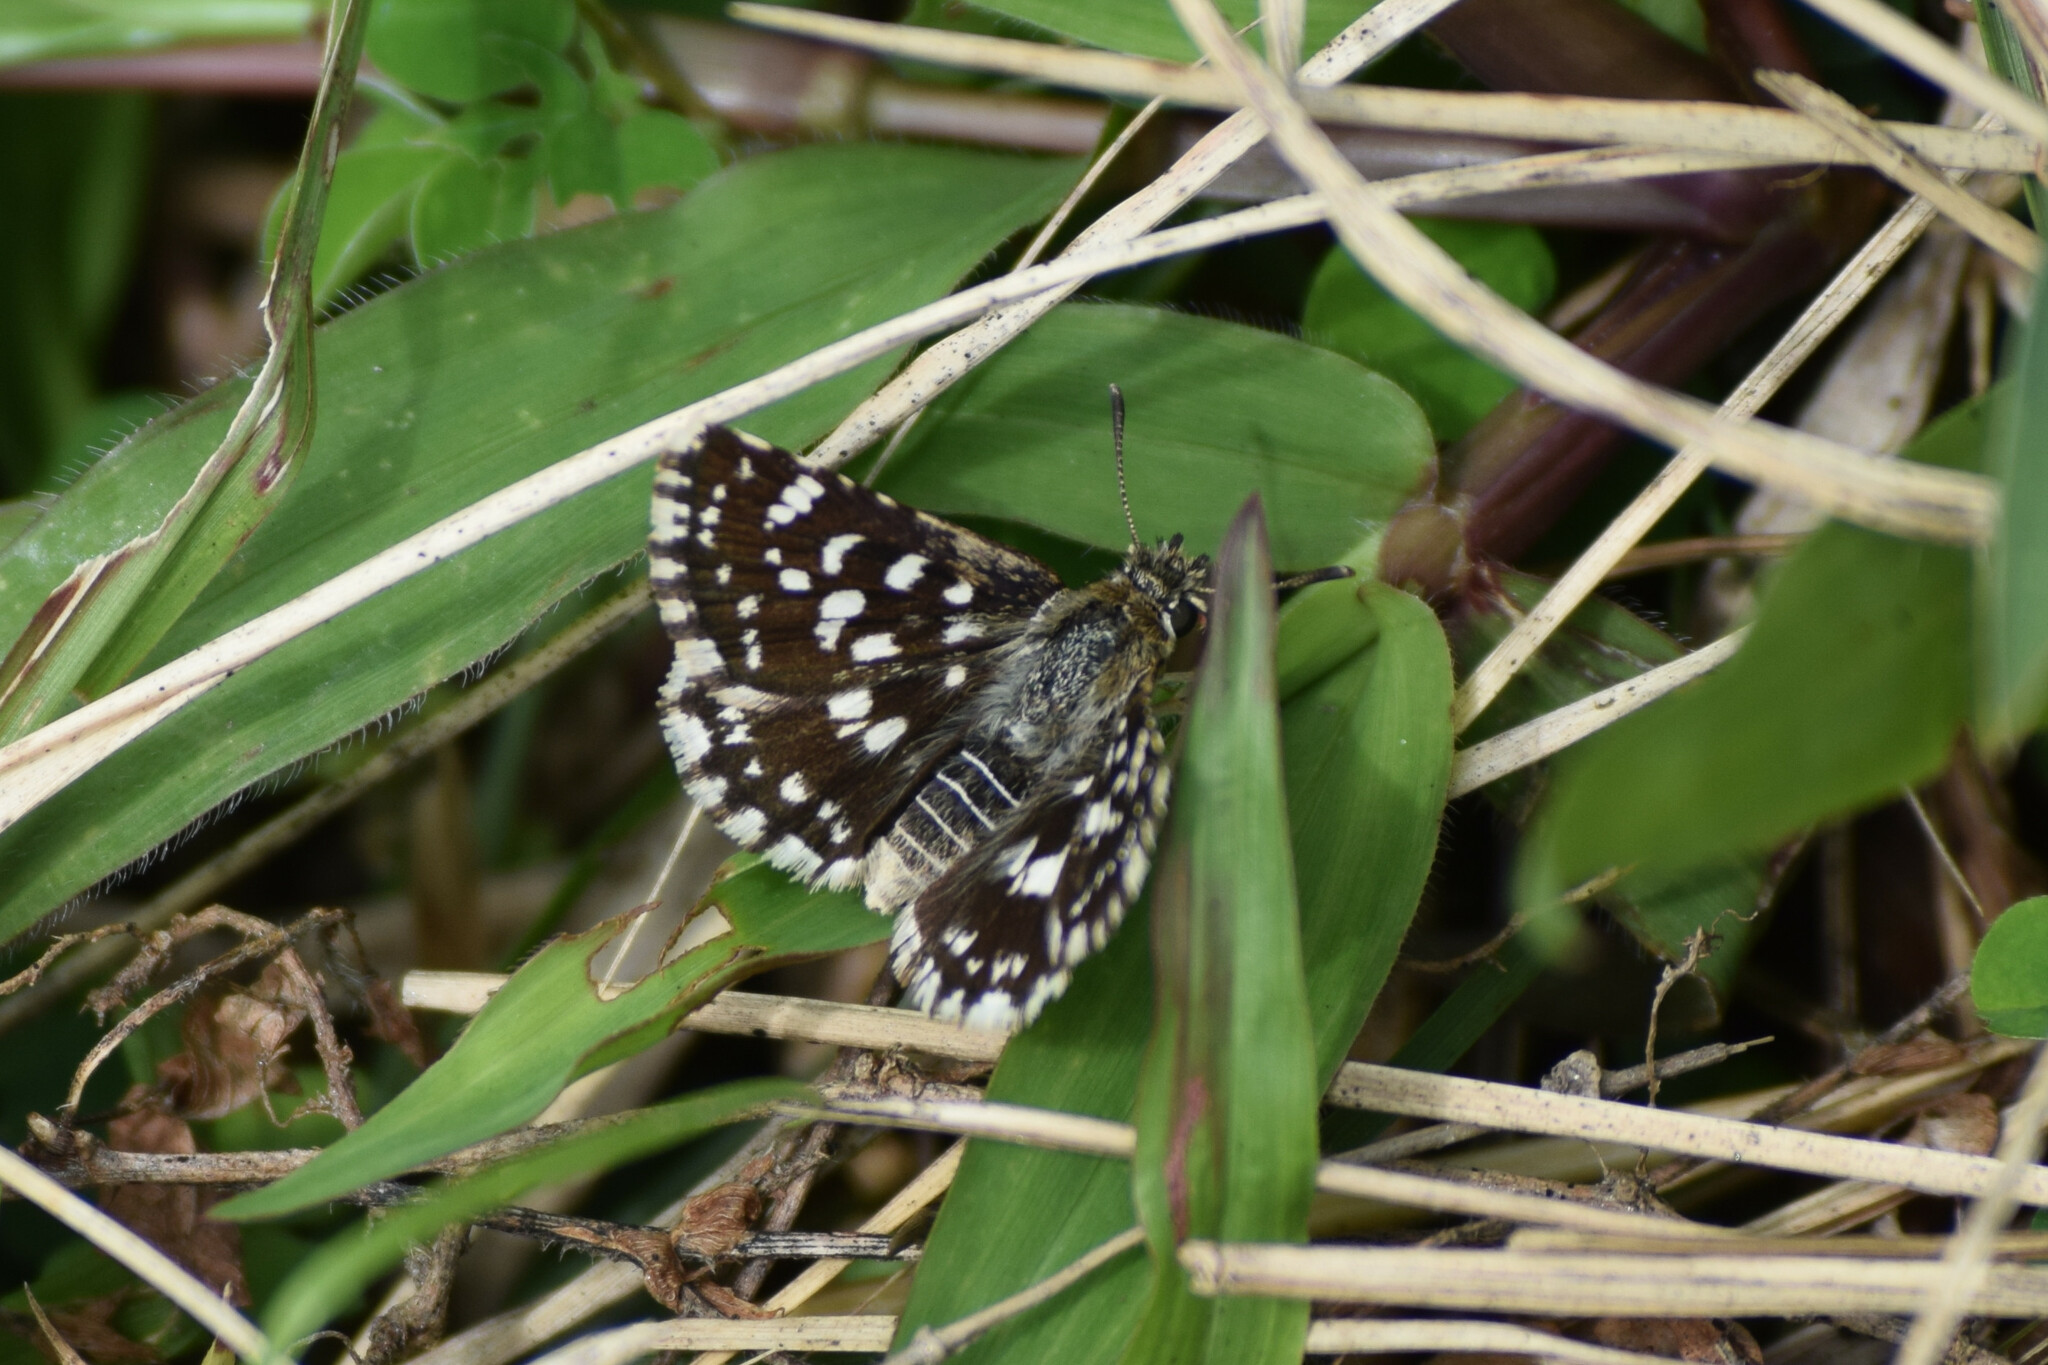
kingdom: Animalia
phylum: Arthropoda
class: Insecta
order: Lepidoptera
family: Hesperiidae
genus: Spialia
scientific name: Spialia galba
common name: Indian skipper
